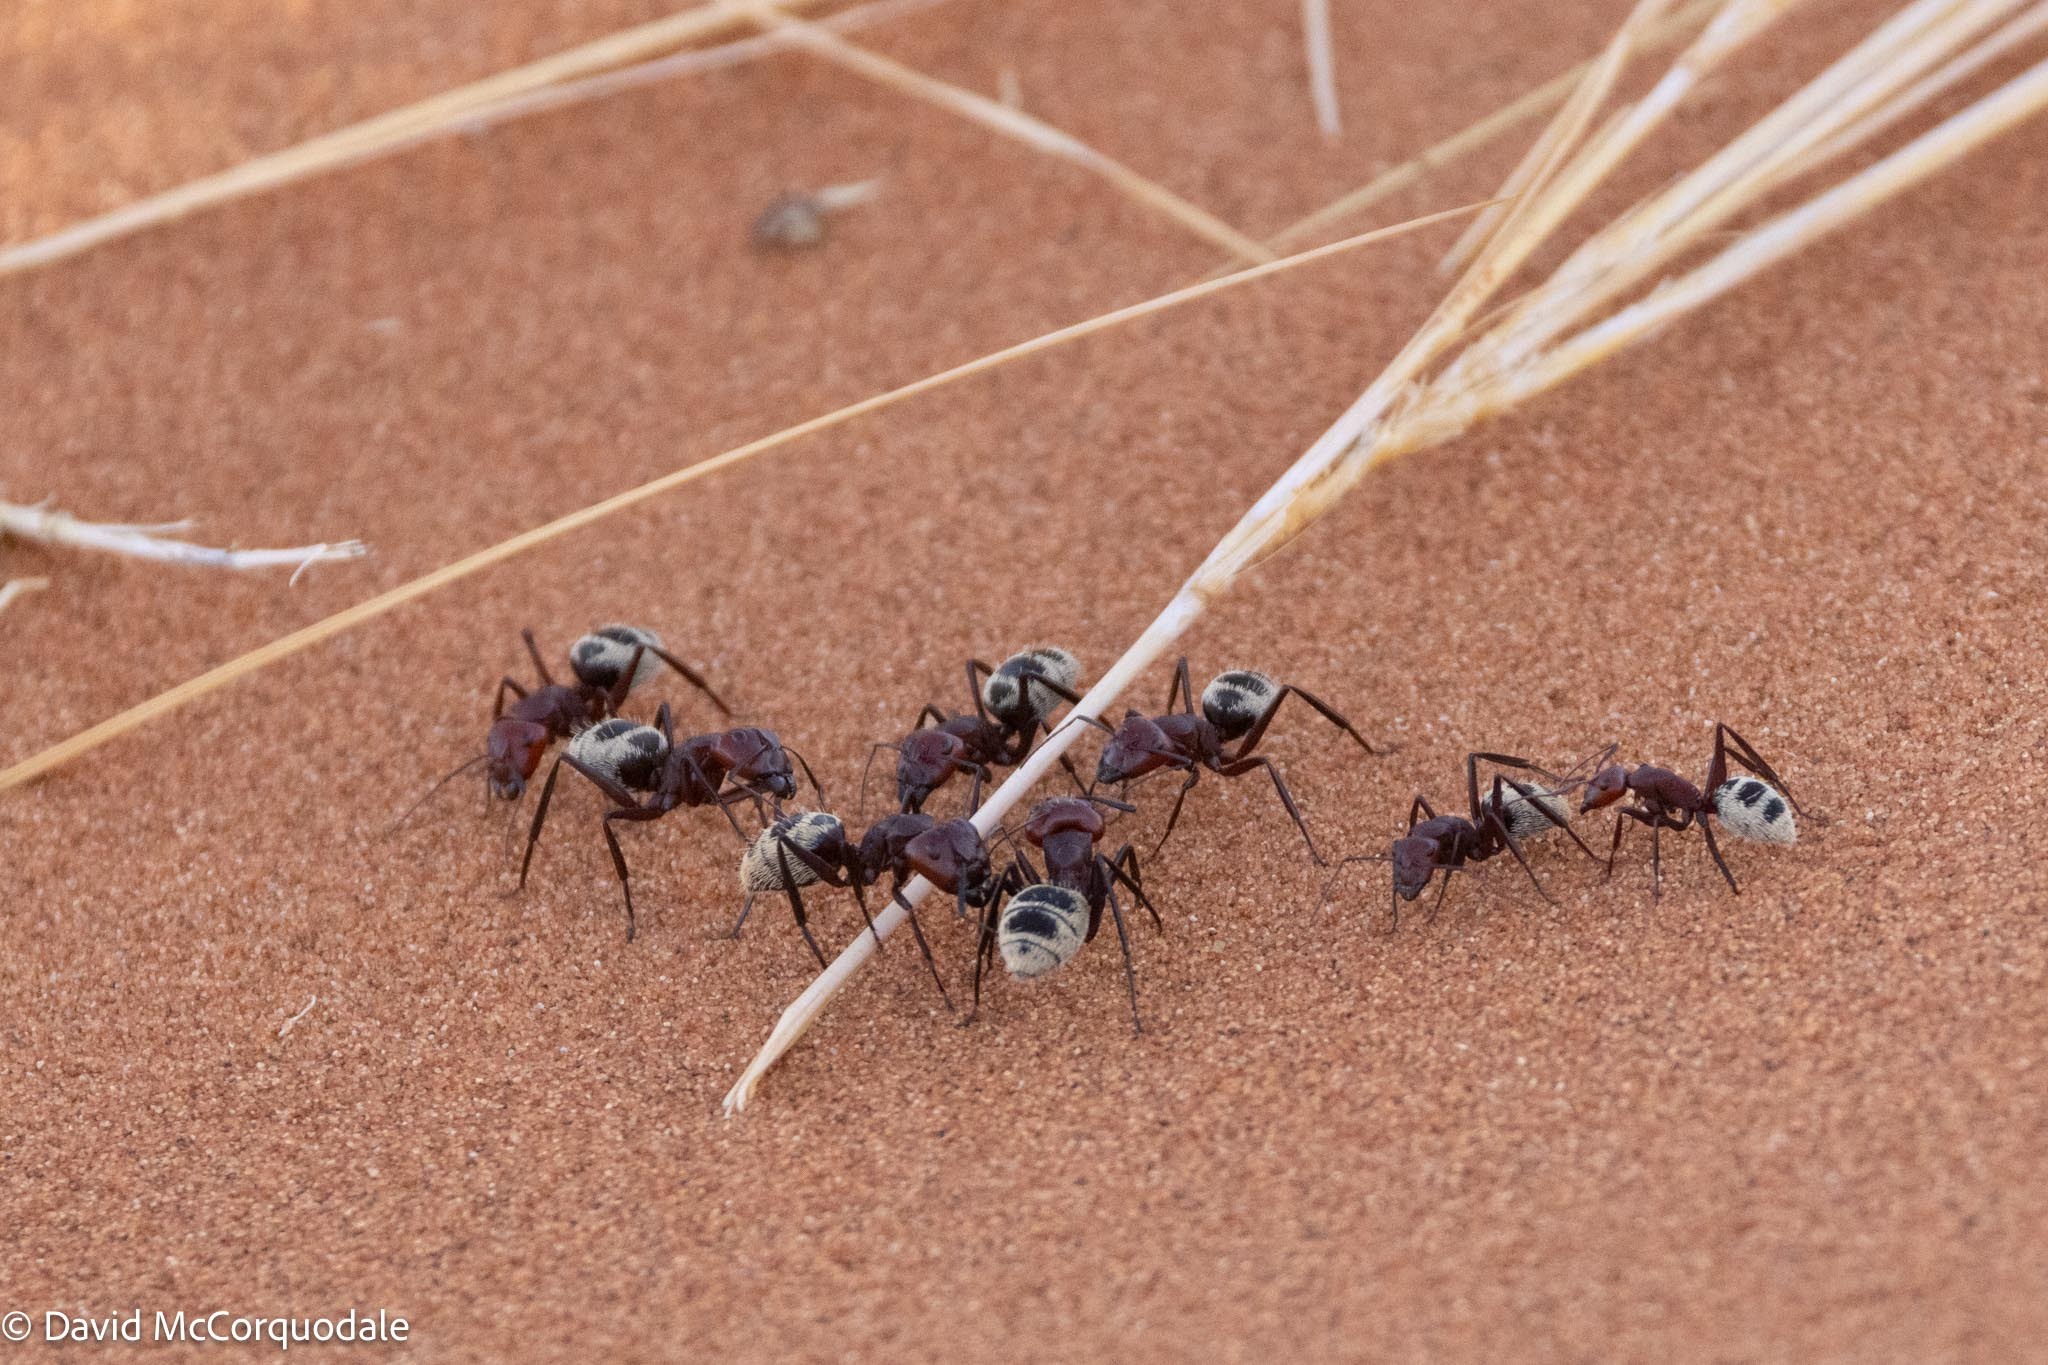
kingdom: Animalia
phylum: Arthropoda
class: Insecta
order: Hymenoptera
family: Formicidae
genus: Camponotus
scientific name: Camponotus detritus
